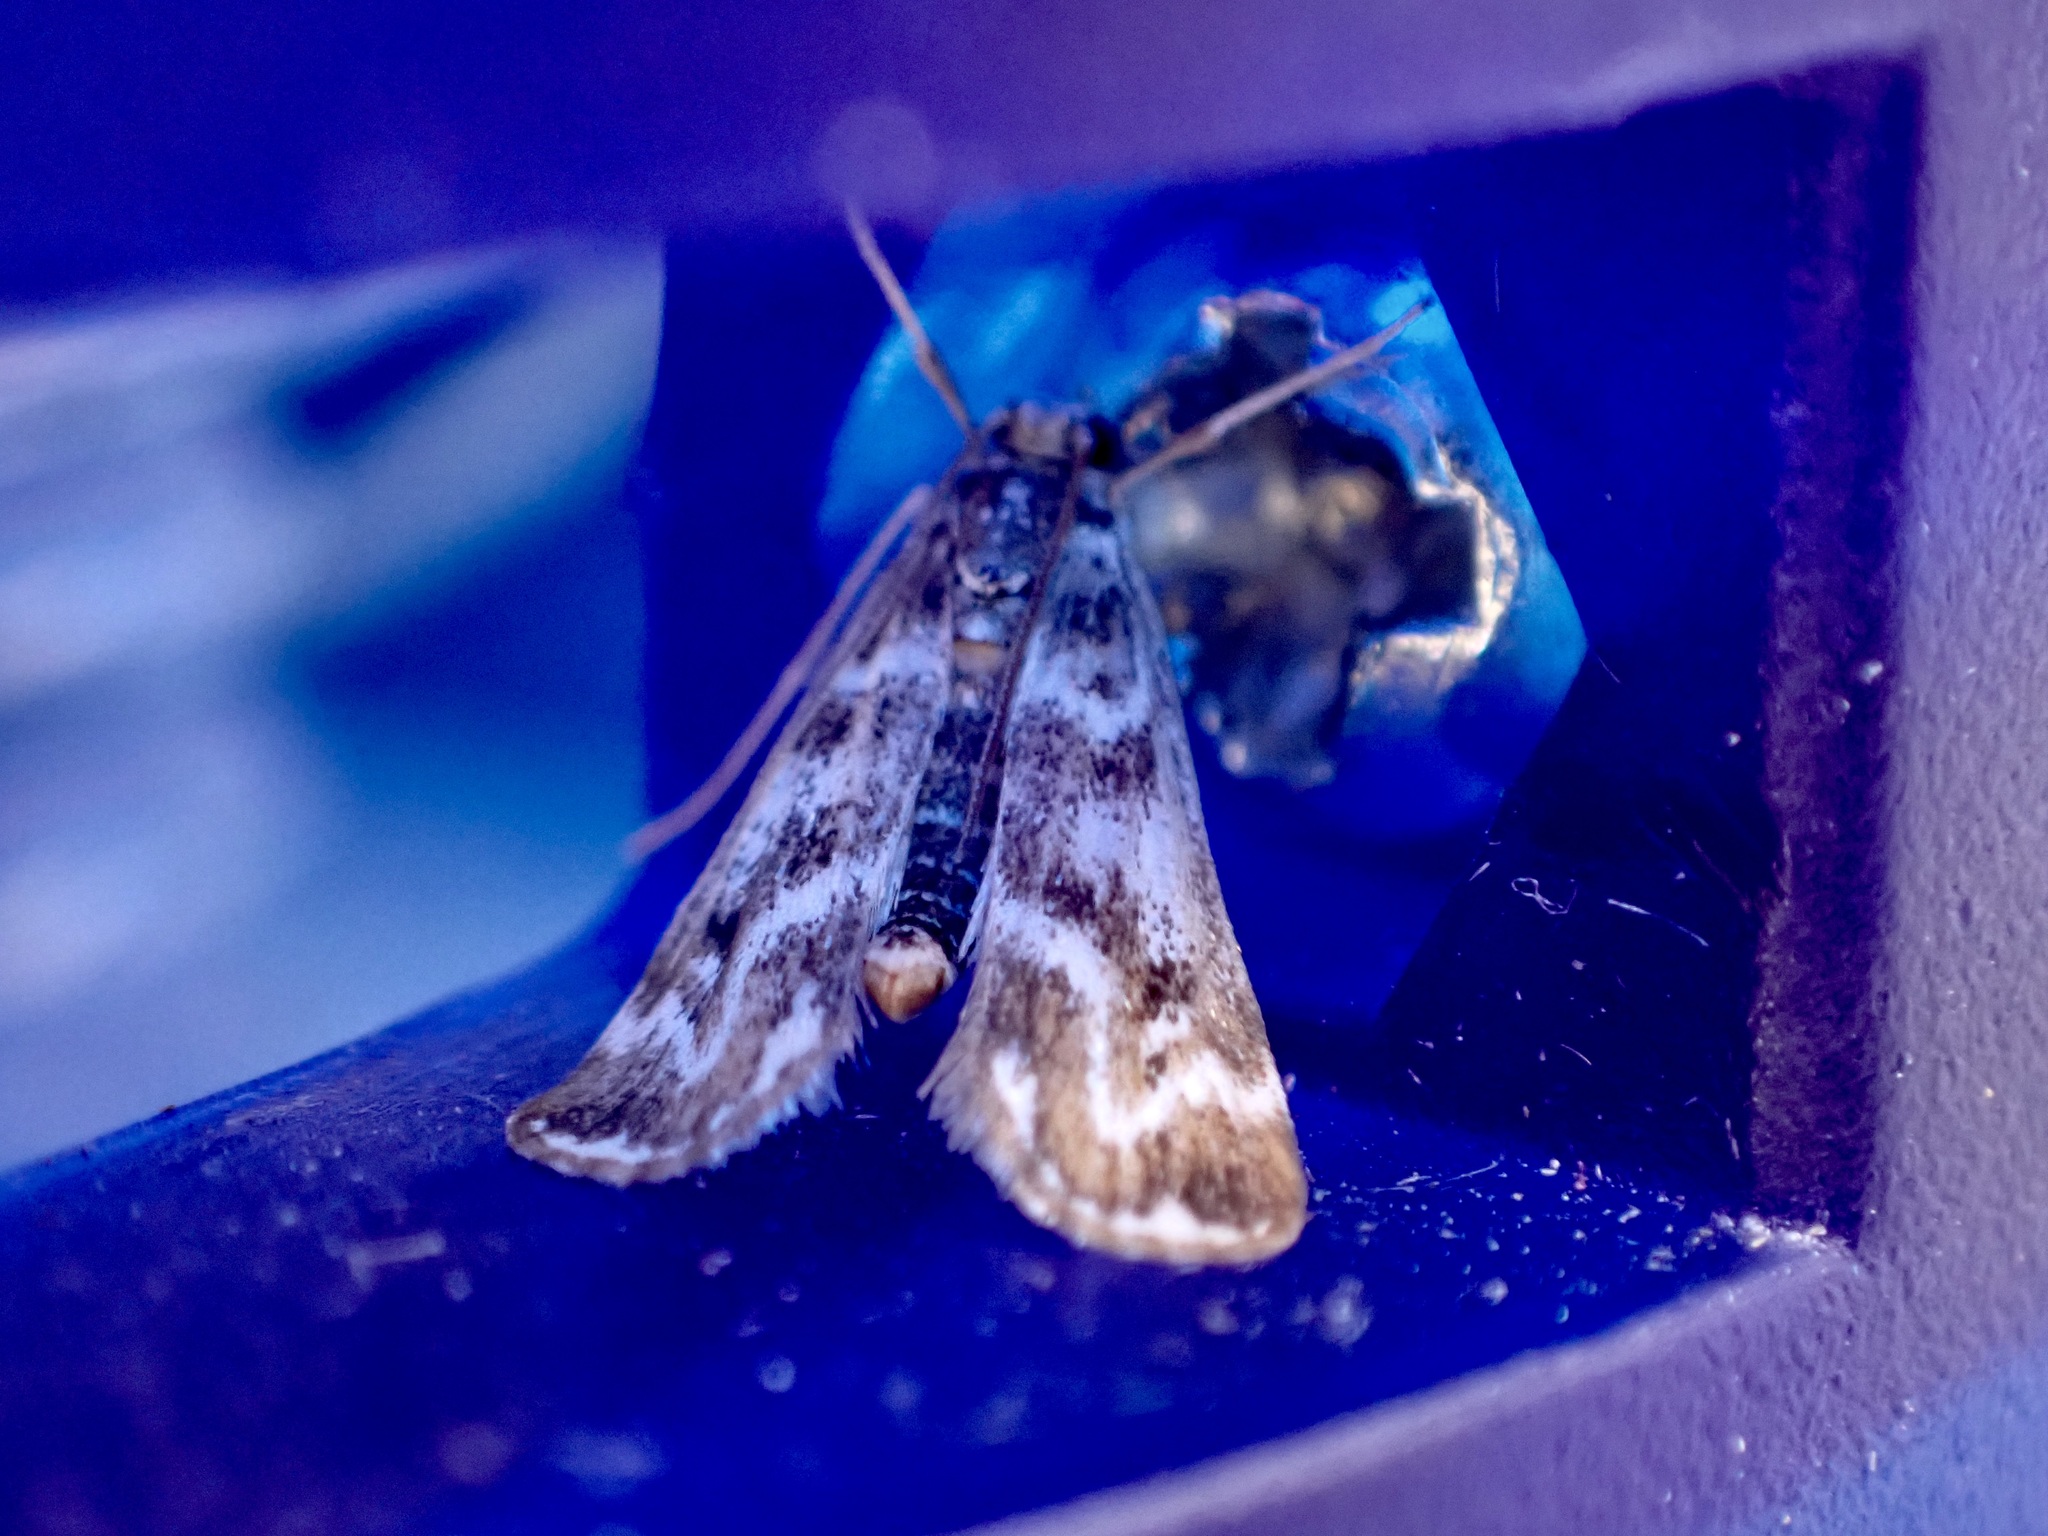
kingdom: Animalia
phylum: Arthropoda
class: Insecta
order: Lepidoptera
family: Crambidae
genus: Hygraula
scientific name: Hygraula nitens
